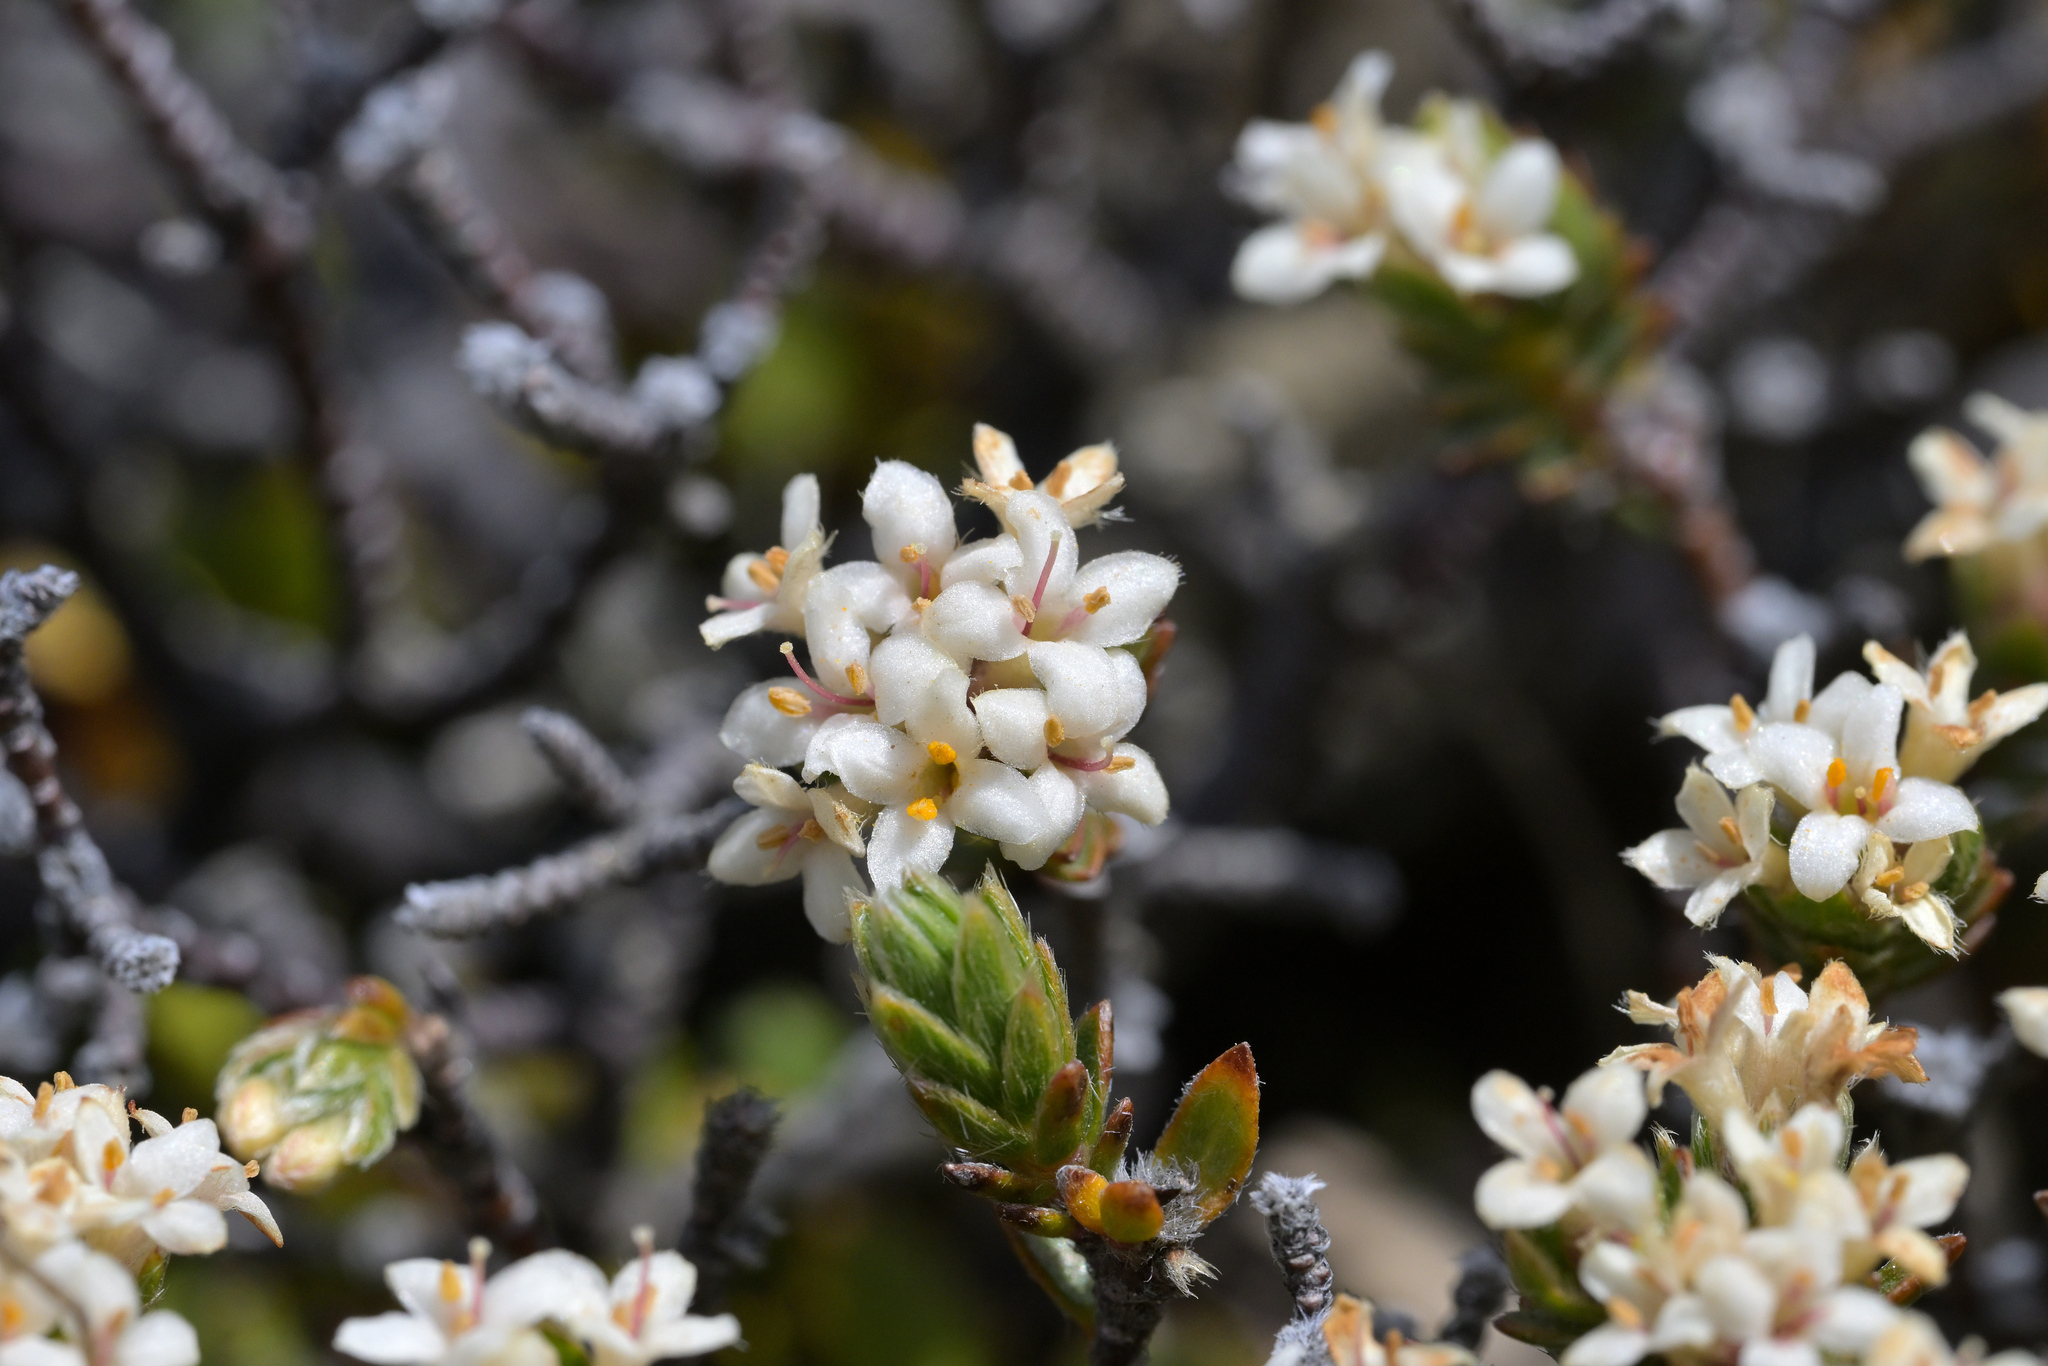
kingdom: Plantae
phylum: Tracheophyta
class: Magnoliopsida
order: Malvales
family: Thymelaeaceae
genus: Pimelea
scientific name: Pimelea oreophila
